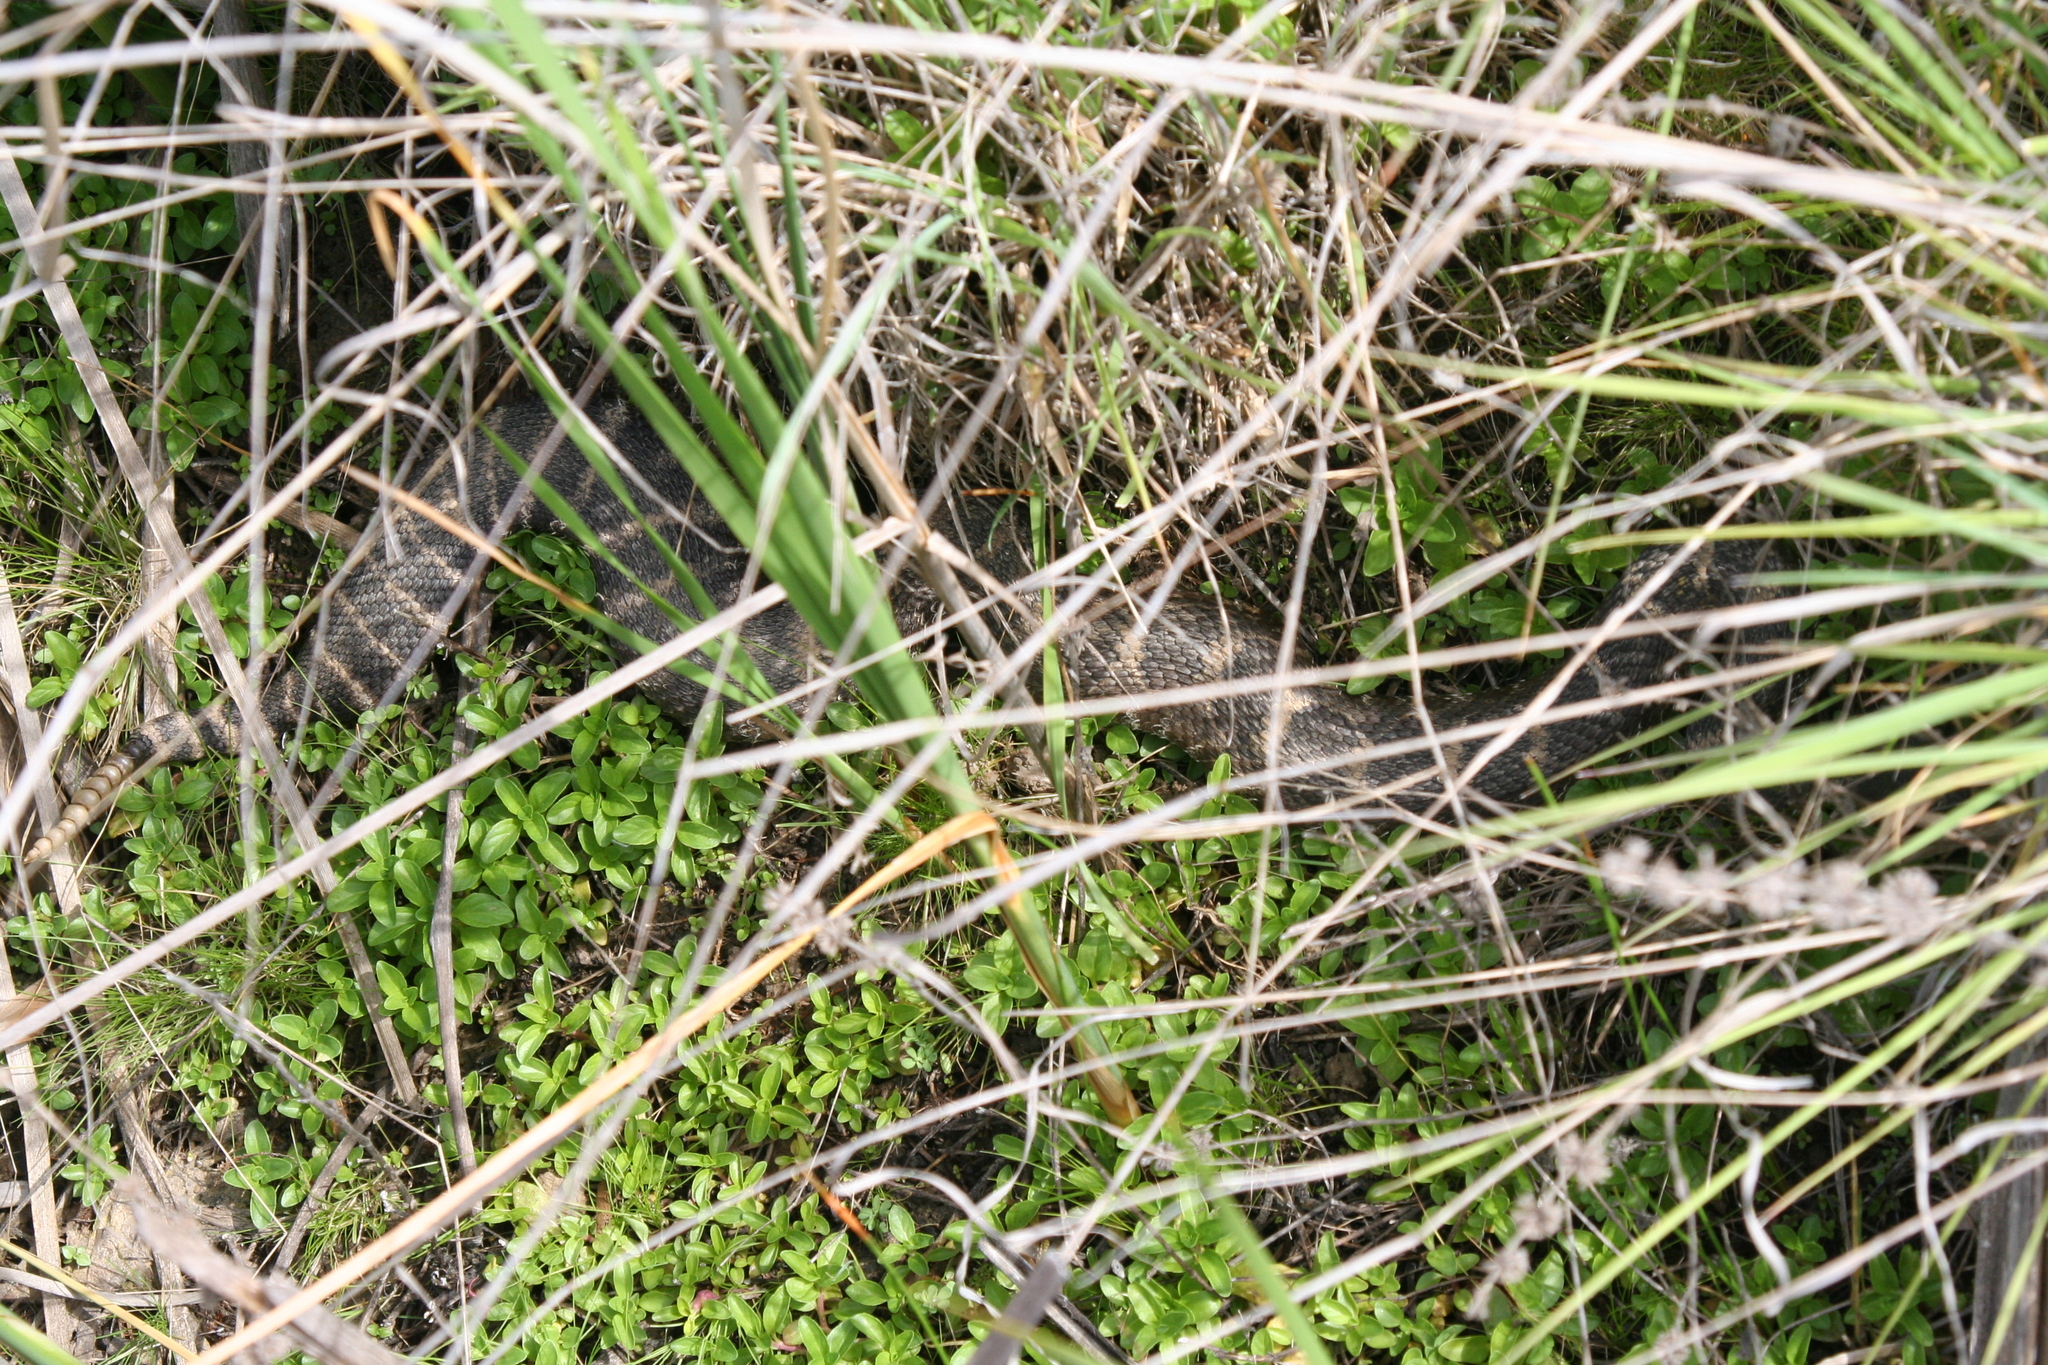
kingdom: Animalia
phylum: Chordata
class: Squamata
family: Viperidae
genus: Crotalus
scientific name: Crotalus oreganus
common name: Abyssus
